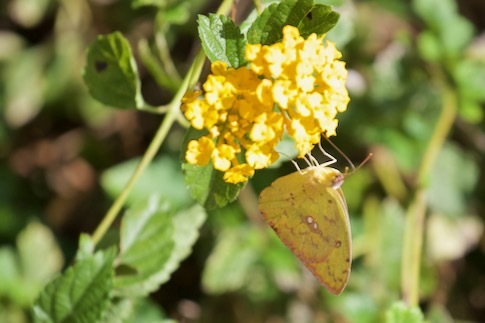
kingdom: Animalia
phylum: Arthropoda
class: Insecta
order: Lepidoptera
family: Pieridae
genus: Phoebis
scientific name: Phoebis sennae
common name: Cloudless sulphur
